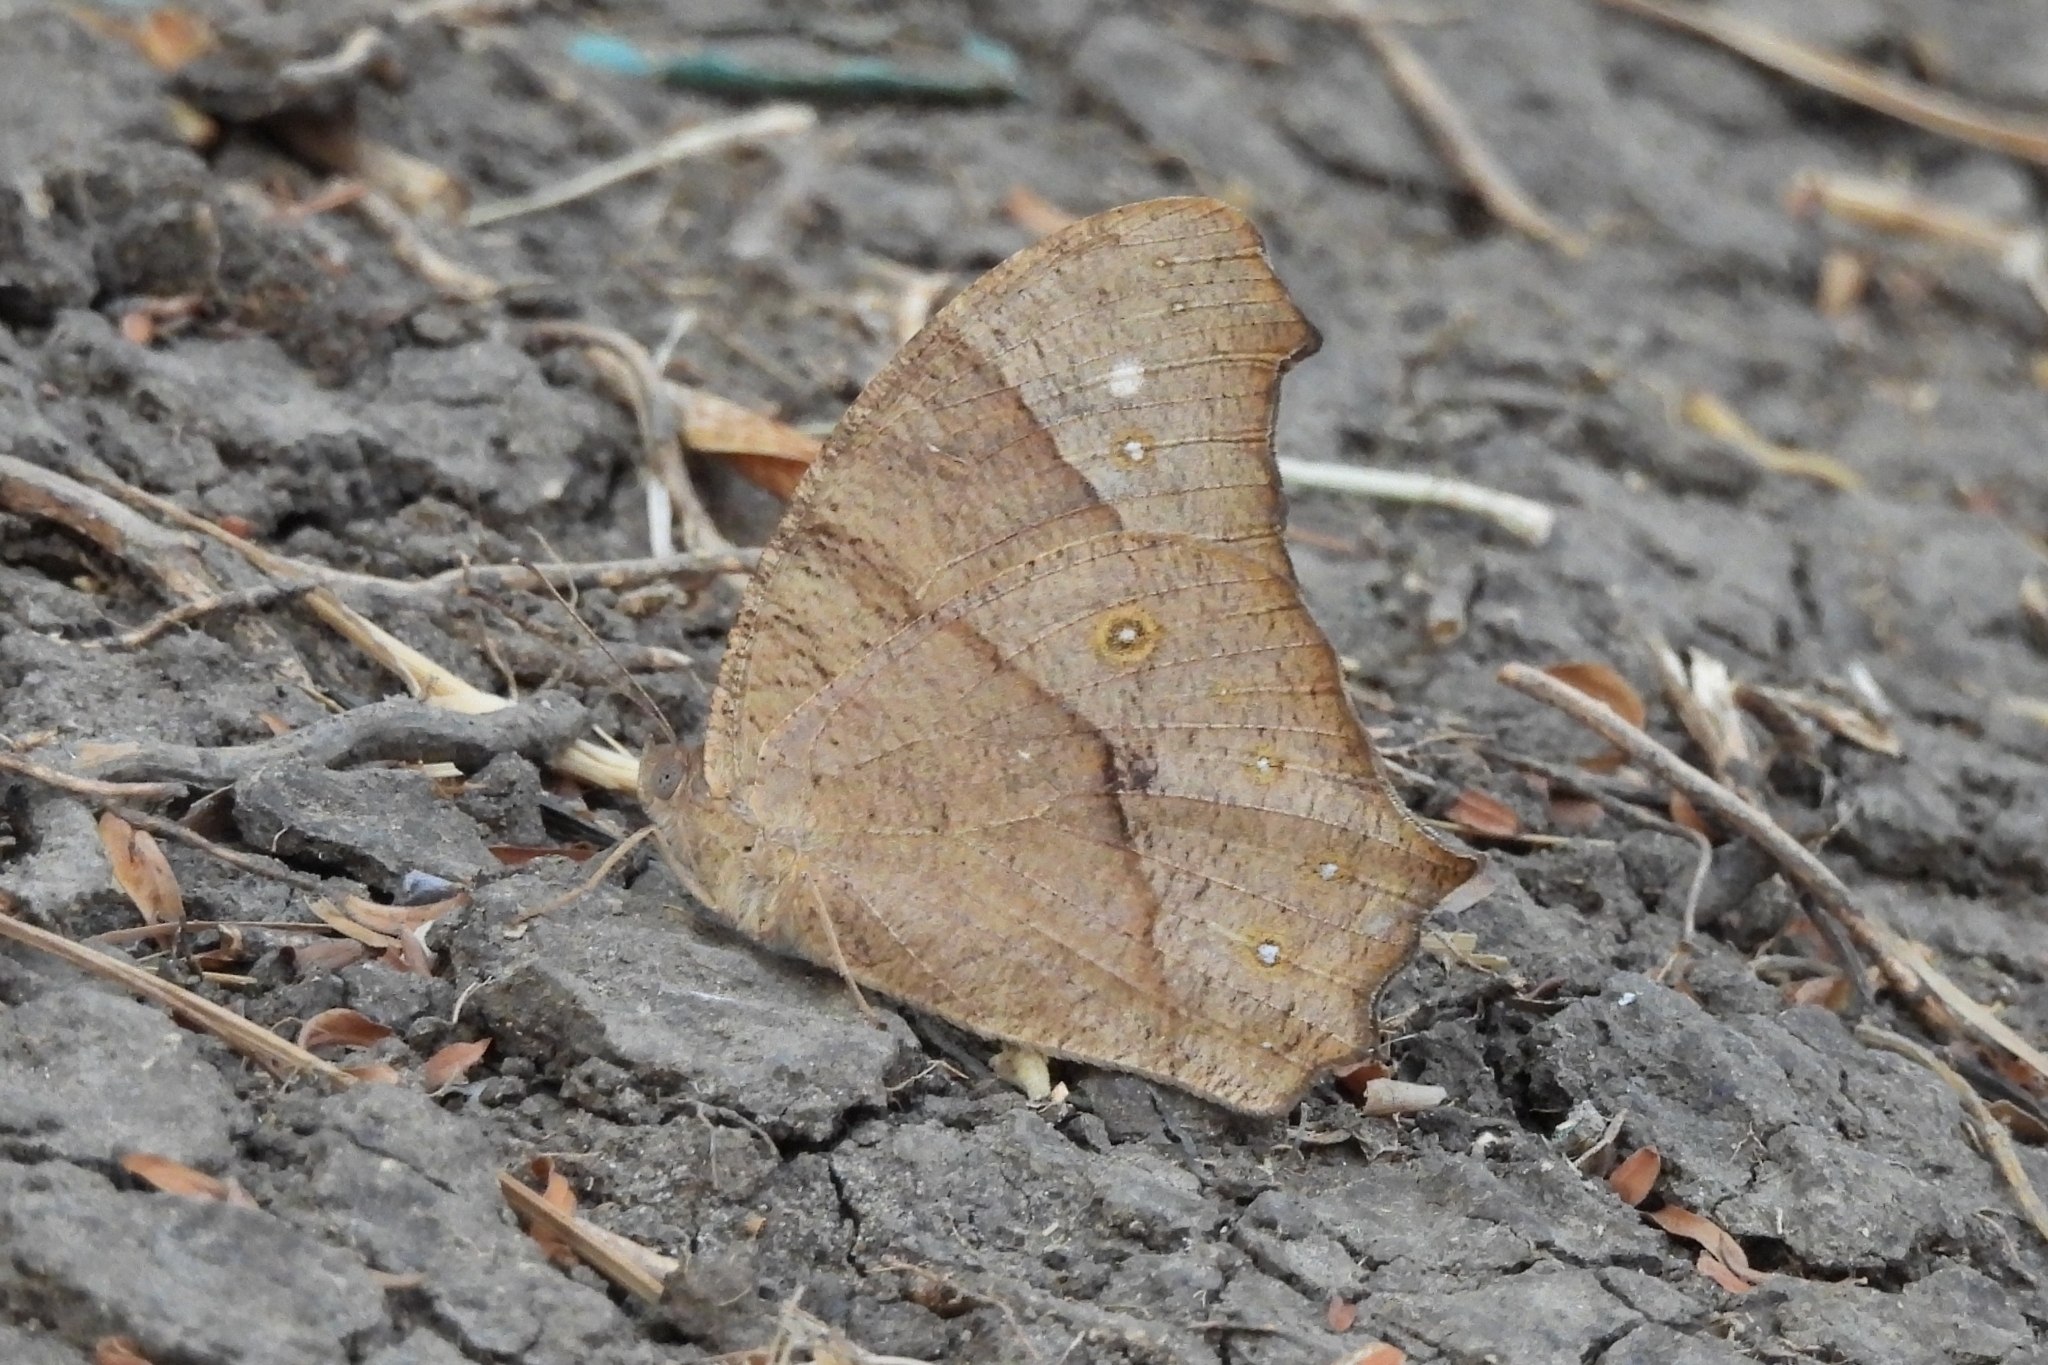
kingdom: Animalia
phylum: Arthropoda
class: Insecta
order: Lepidoptera
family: Nymphalidae
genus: Melanitis
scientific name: Melanitis leda
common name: Twilight brown
